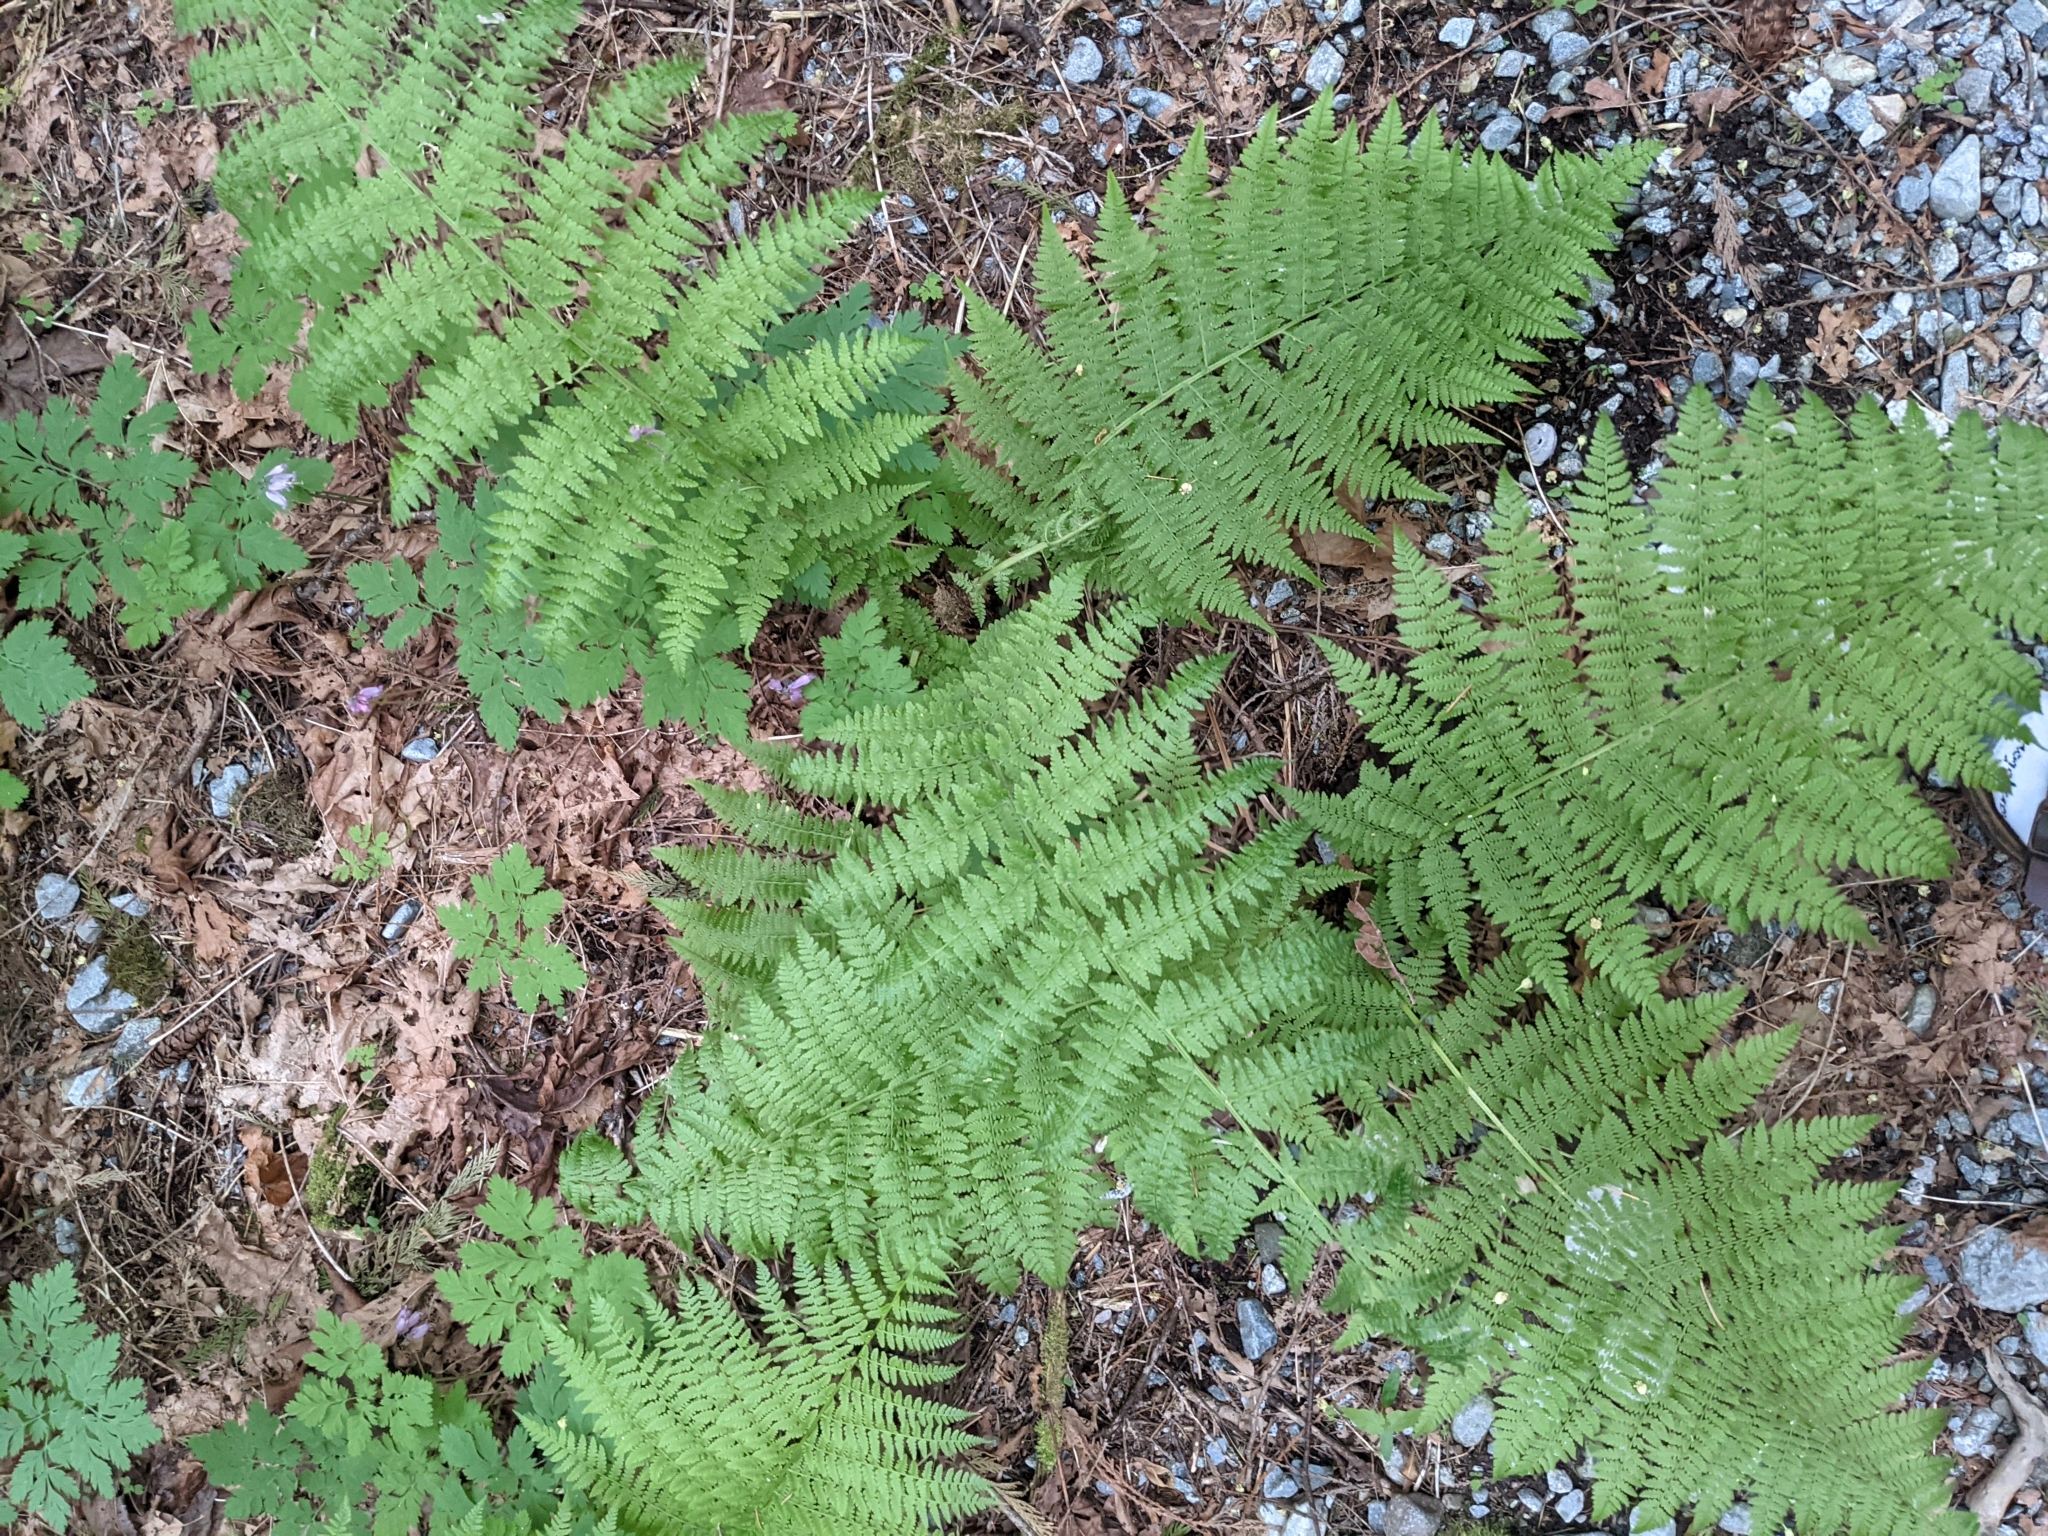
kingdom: Plantae
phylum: Tracheophyta
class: Polypodiopsida
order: Polypodiales
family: Athyriaceae
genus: Athyrium
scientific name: Athyrium filix-femina
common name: Lady fern
